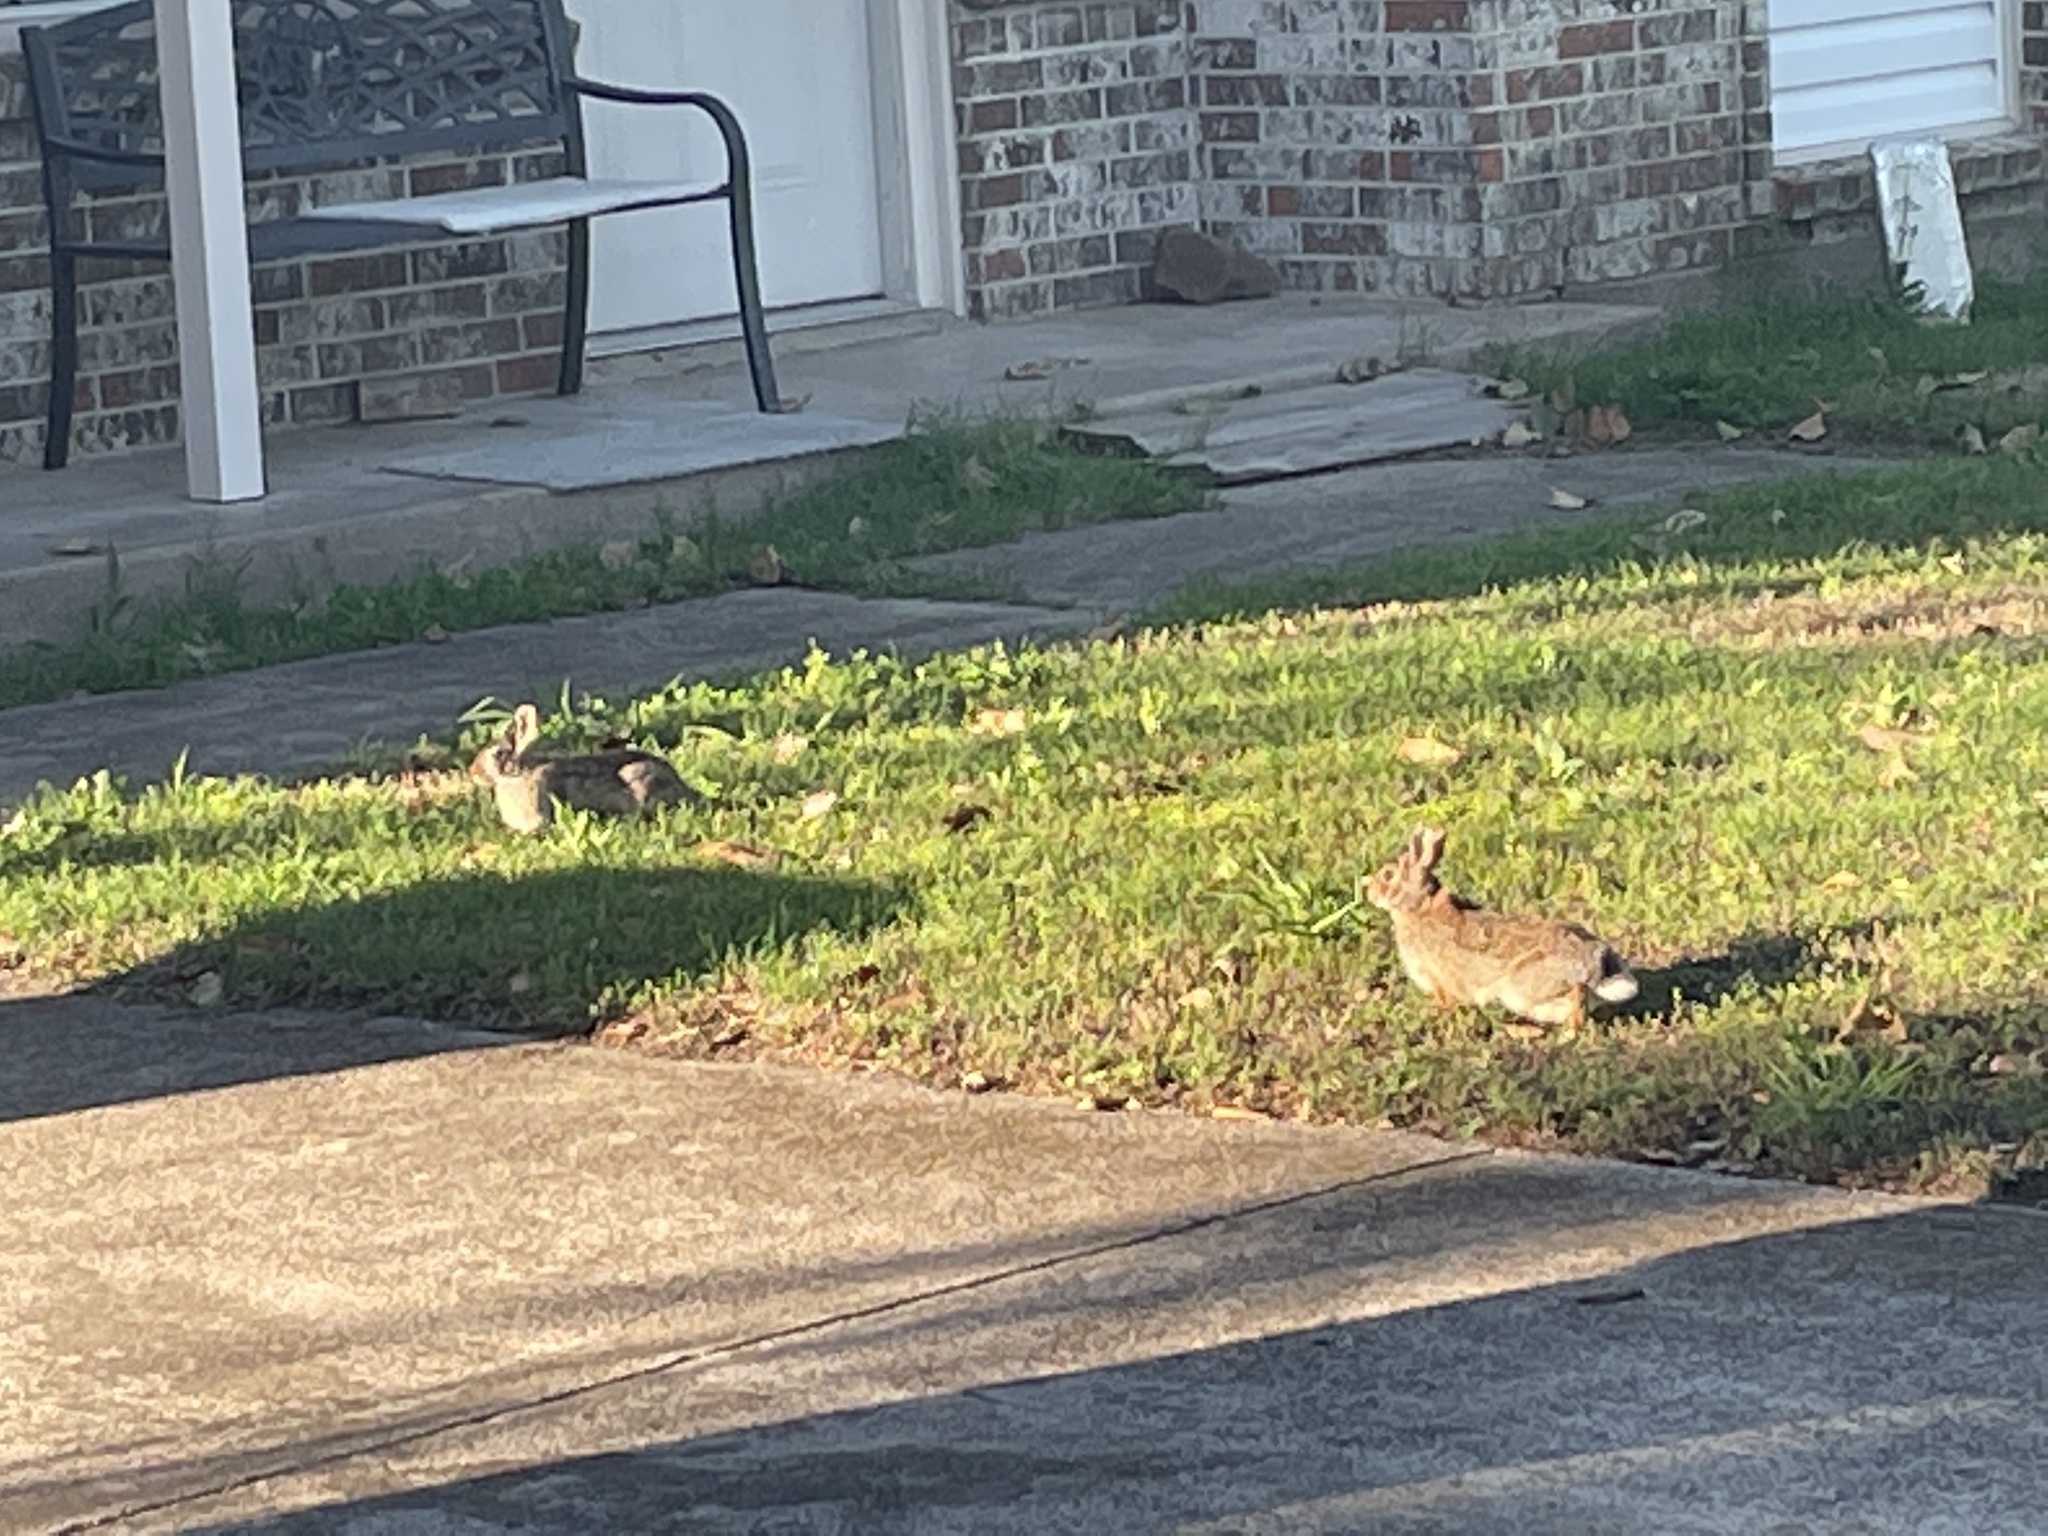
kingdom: Animalia
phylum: Chordata
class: Mammalia
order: Lagomorpha
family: Leporidae
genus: Sylvilagus
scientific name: Sylvilagus floridanus
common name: Eastern cottontail
